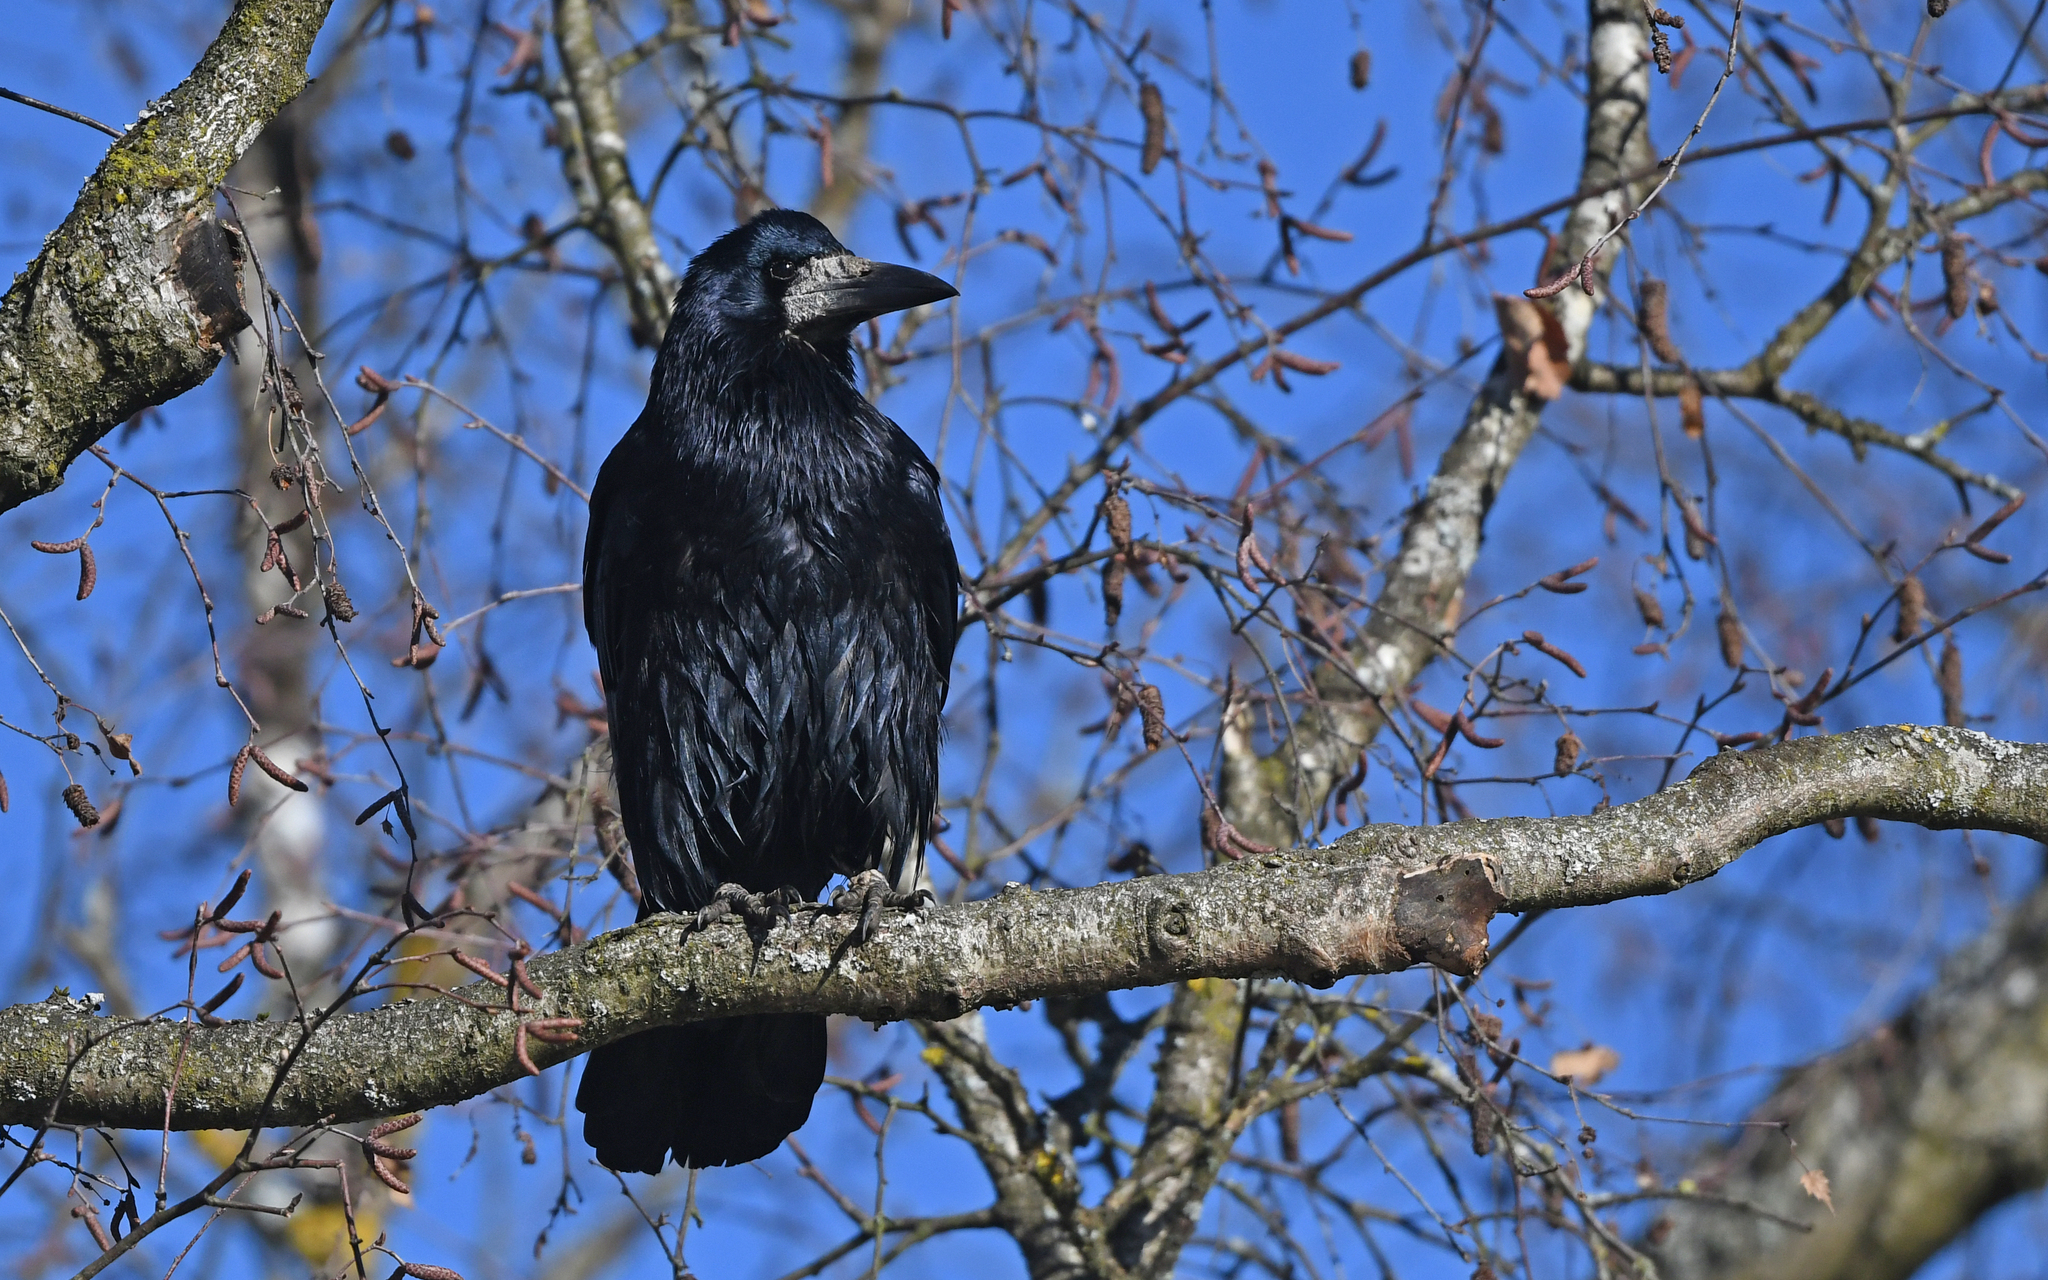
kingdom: Animalia
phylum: Chordata
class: Aves
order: Passeriformes
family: Corvidae
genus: Corvus
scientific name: Corvus frugilegus
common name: Rook
